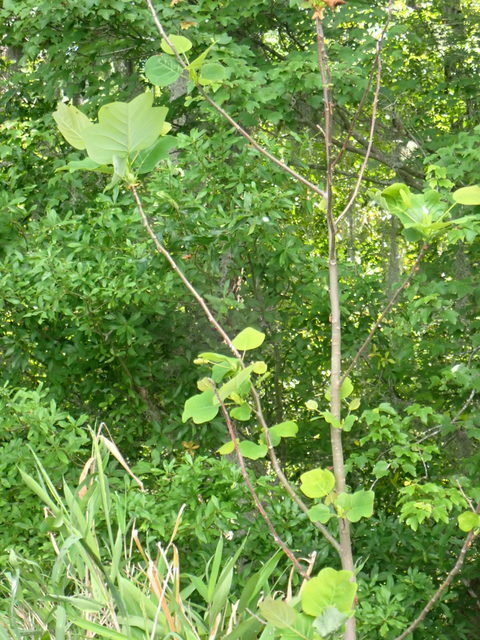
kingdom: Plantae
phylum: Tracheophyta
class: Magnoliopsida
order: Magnoliales
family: Magnoliaceae
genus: Liriodendron
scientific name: Liriodendron tulipifera
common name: Tulip tree
